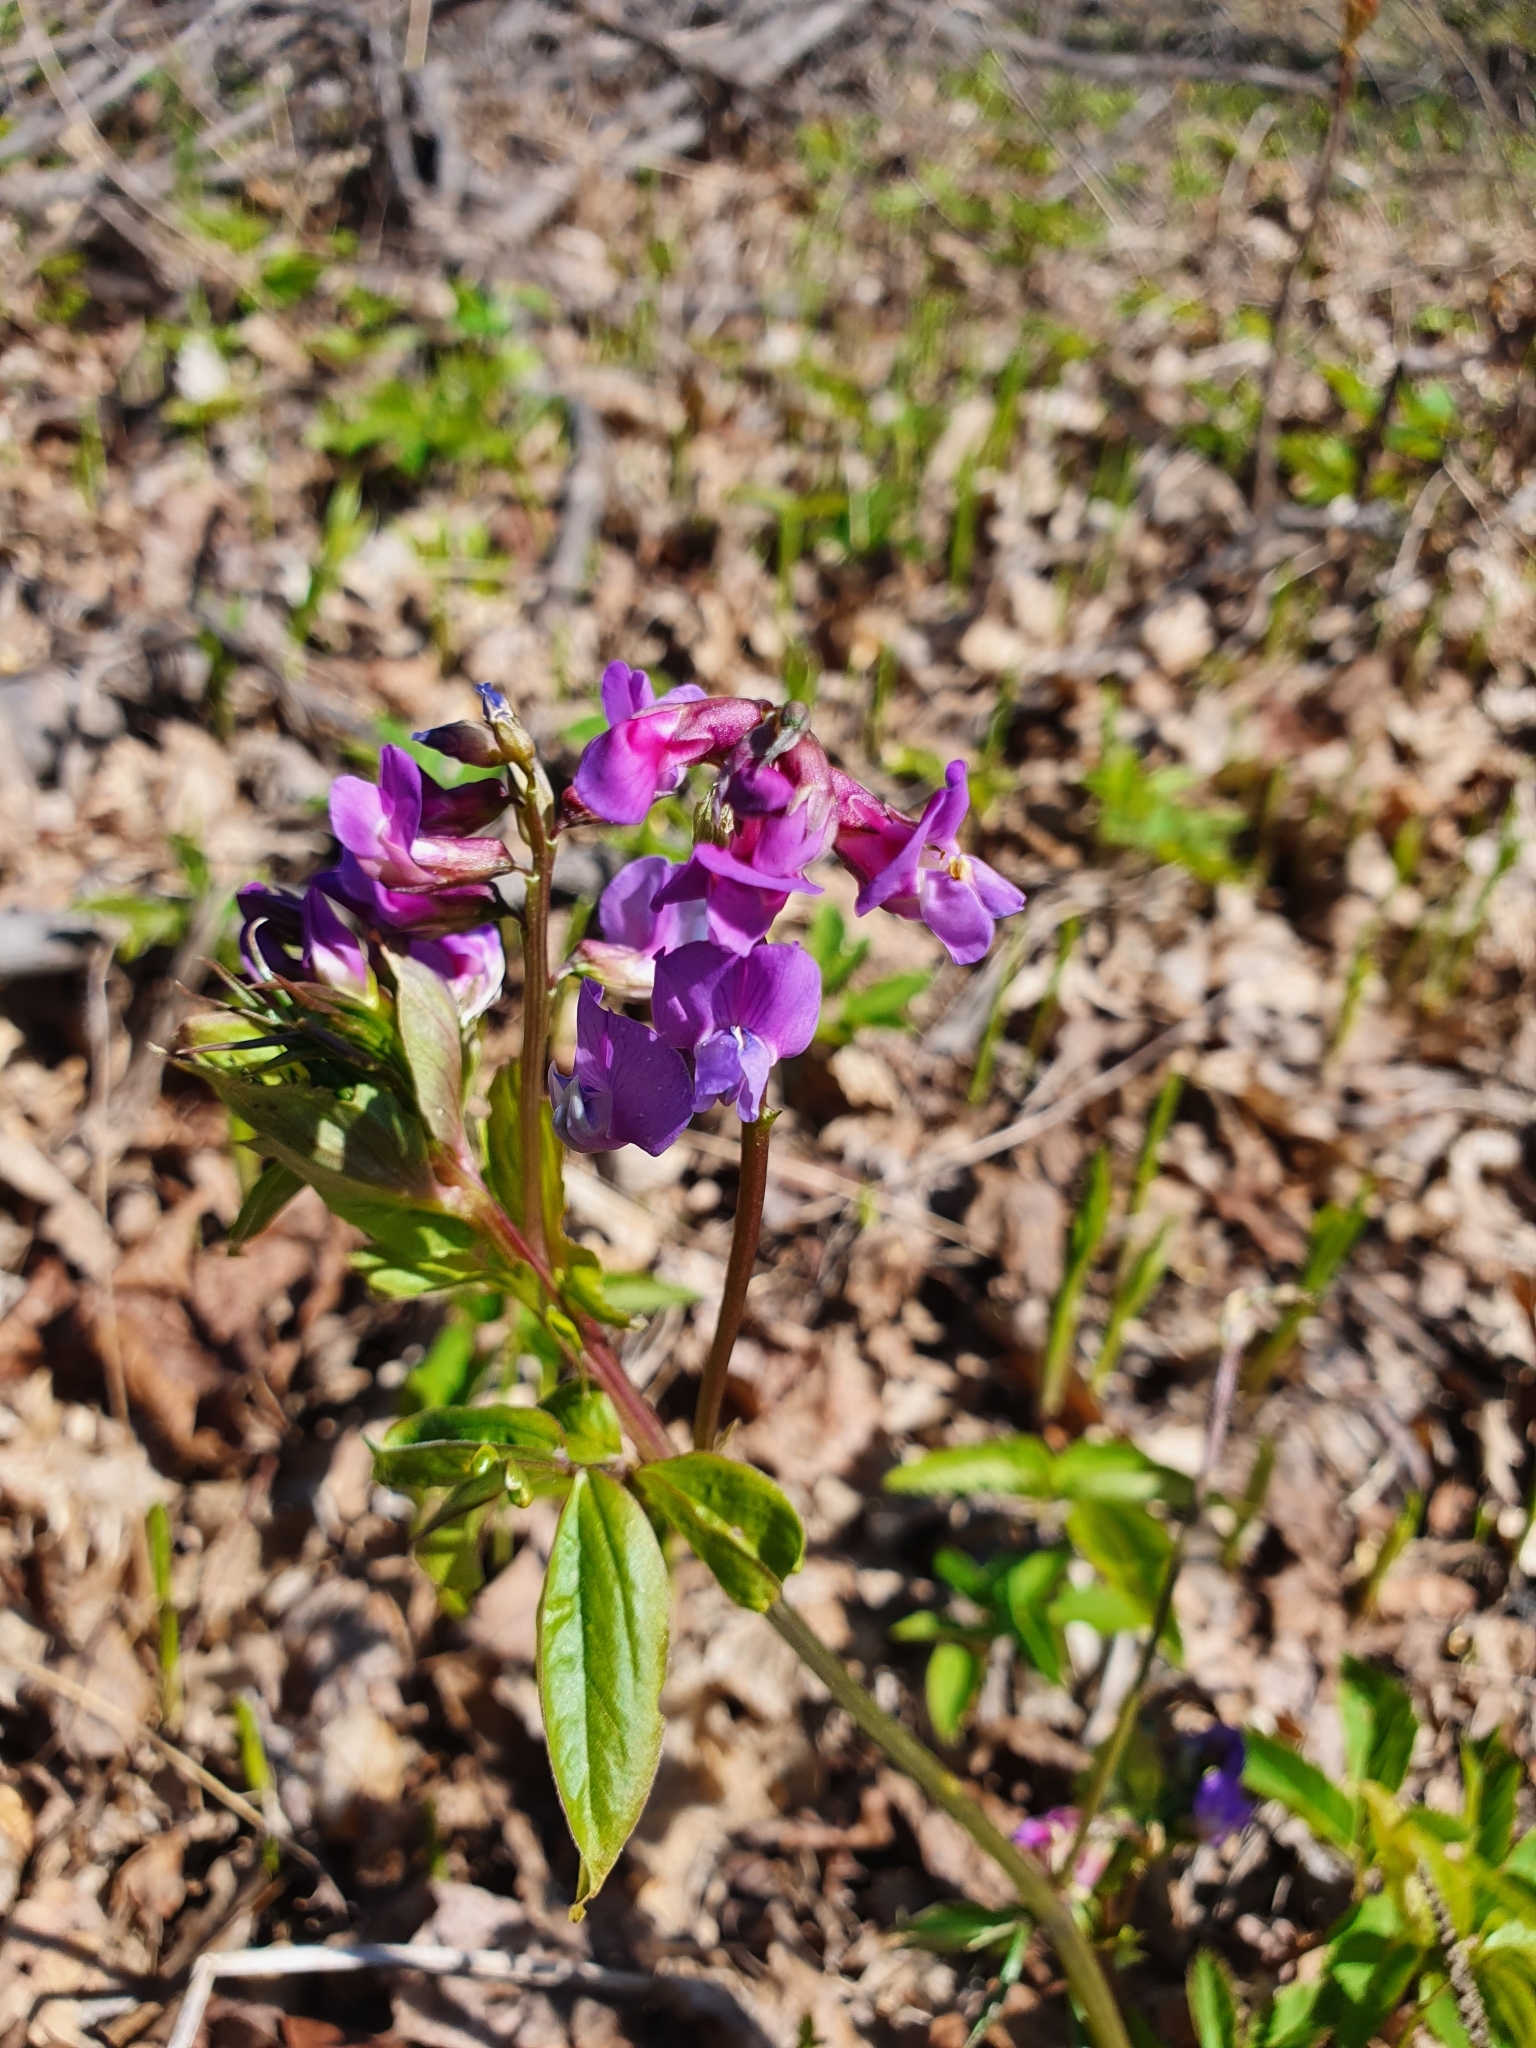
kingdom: Plantae
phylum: Tracheophyta
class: Magnoliopsida
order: Fabales
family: Fabaceae
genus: Lathyrus
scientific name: Lathyrus vernus
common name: Spring pea
